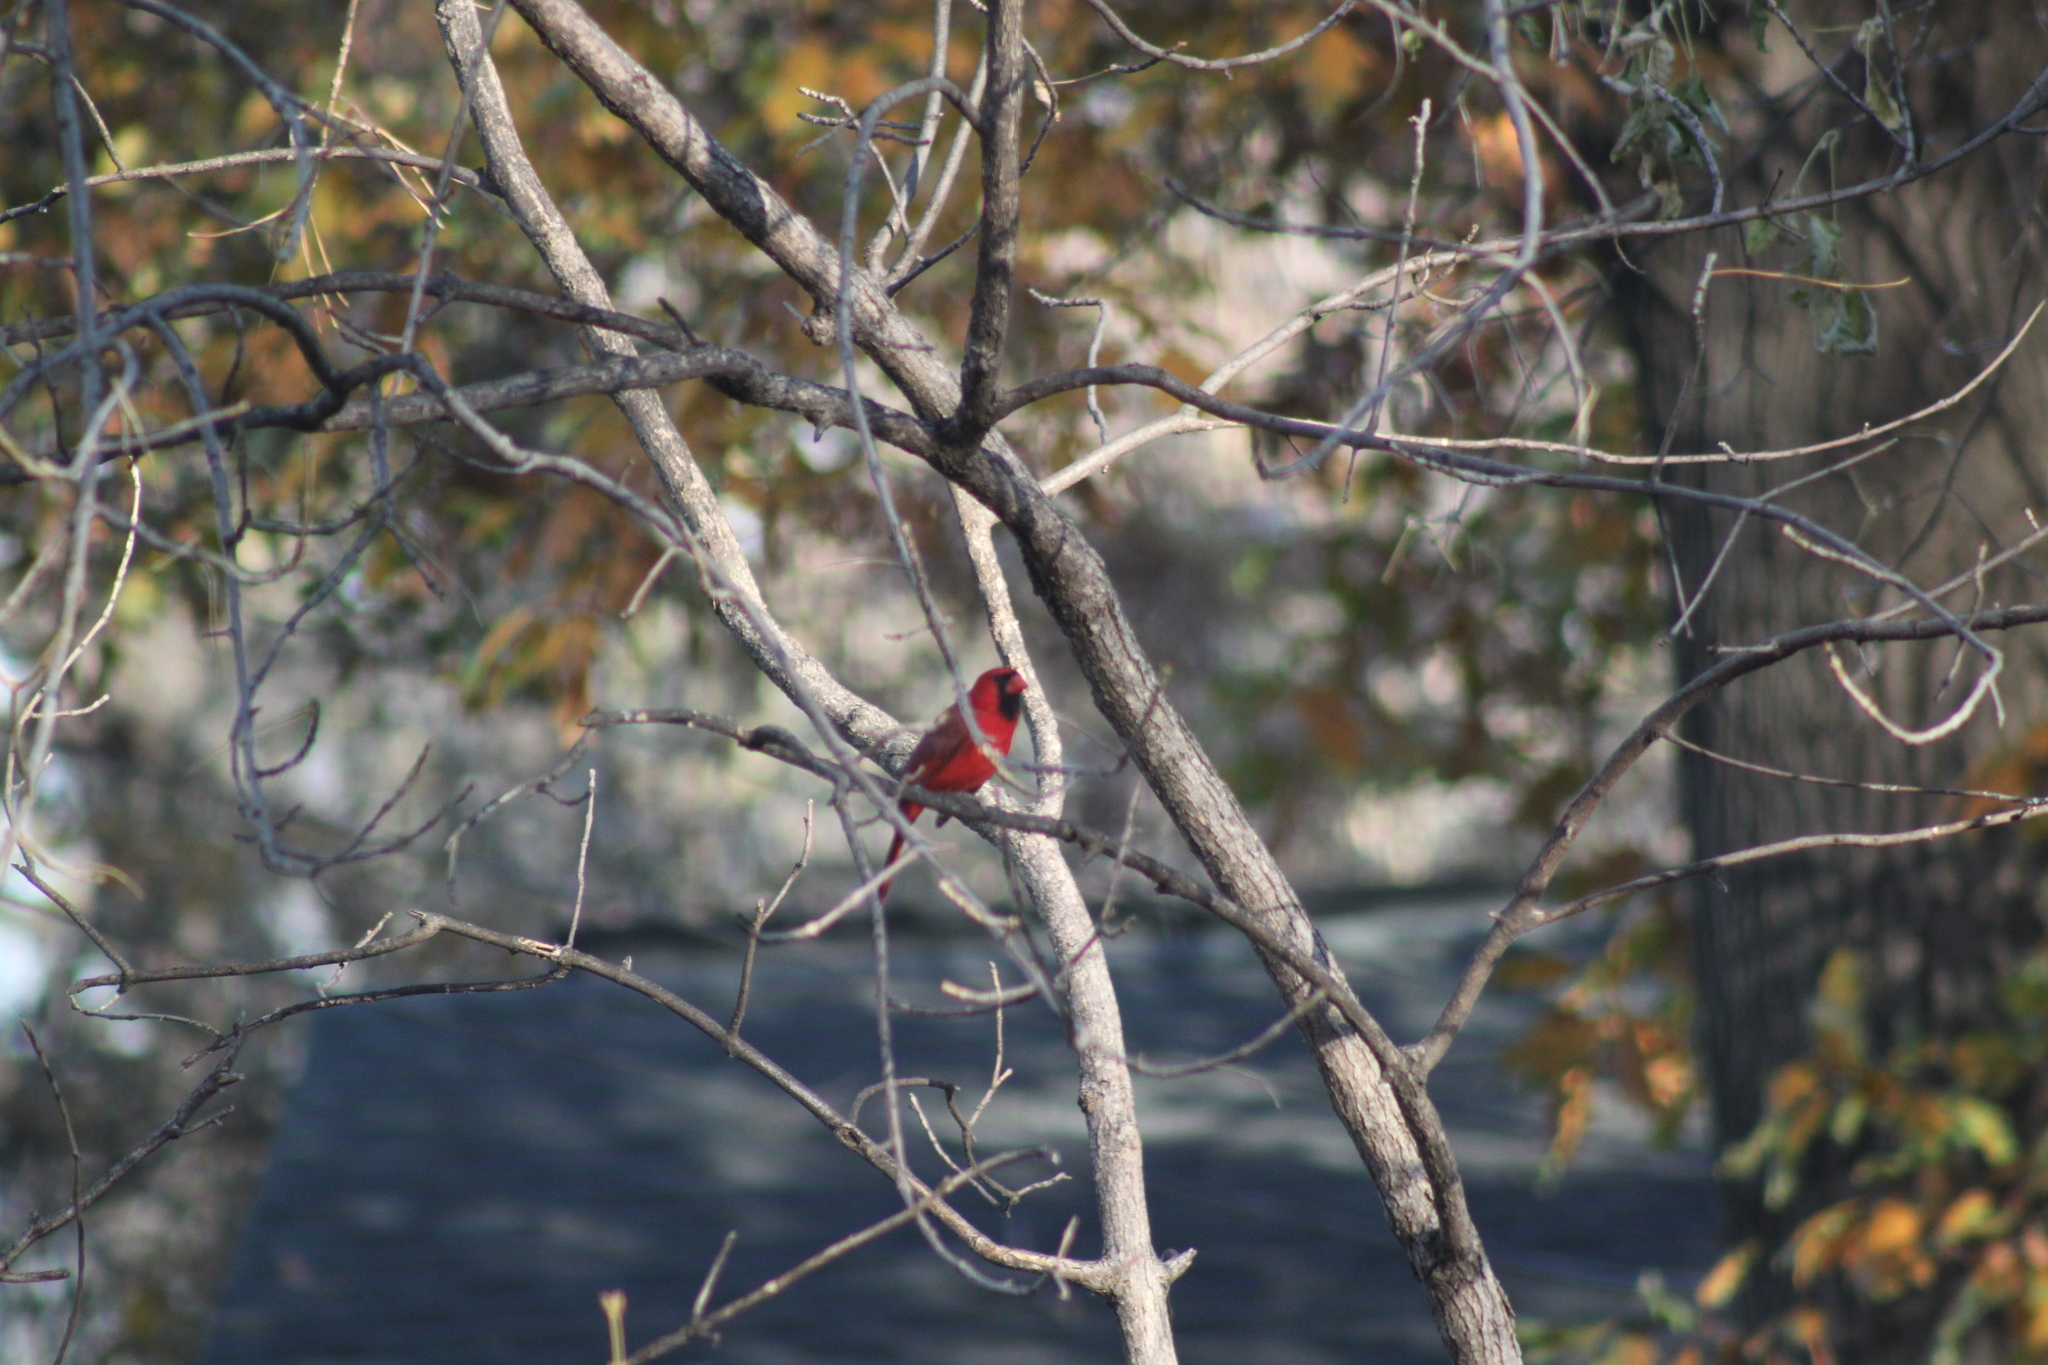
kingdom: Animalia
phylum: Chordata
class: Aves
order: Passeriformes
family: Cardinalidae
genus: Cardinalis
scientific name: Cardinalis cardinalis
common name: Northern cardinal
